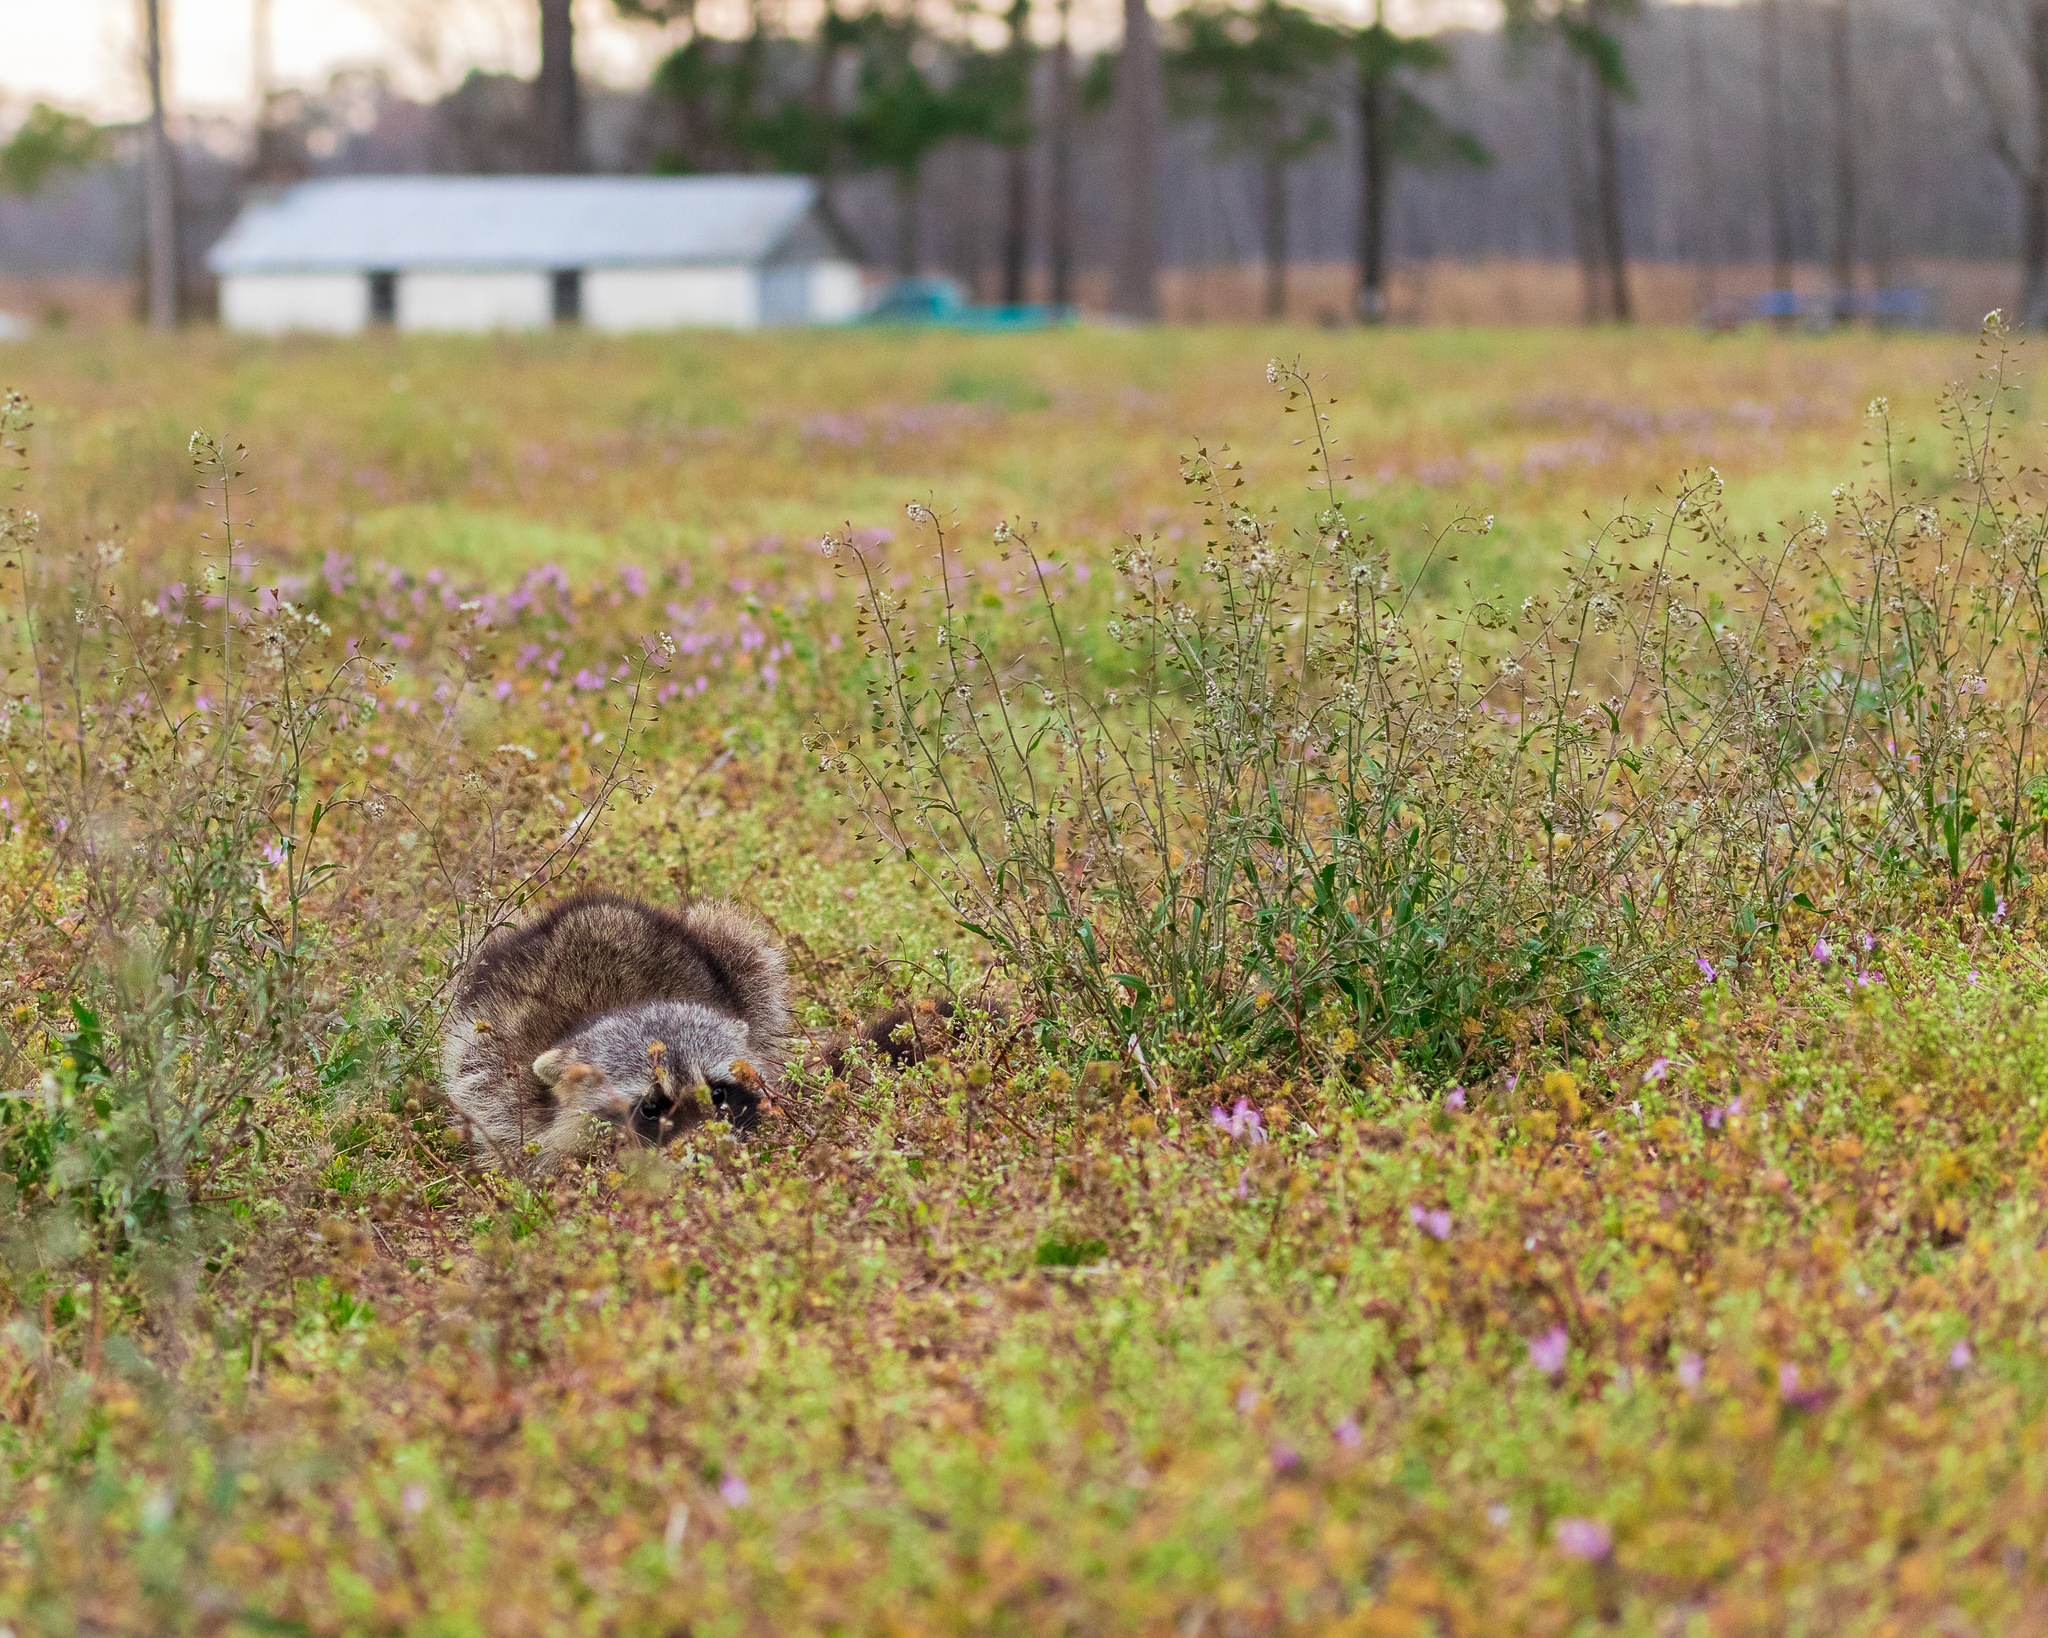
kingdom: Animalia
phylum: Chordata
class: Mammalia
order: Carnivora
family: Procyonidae
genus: Procyon
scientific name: Procyon lotor
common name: Raccoon
